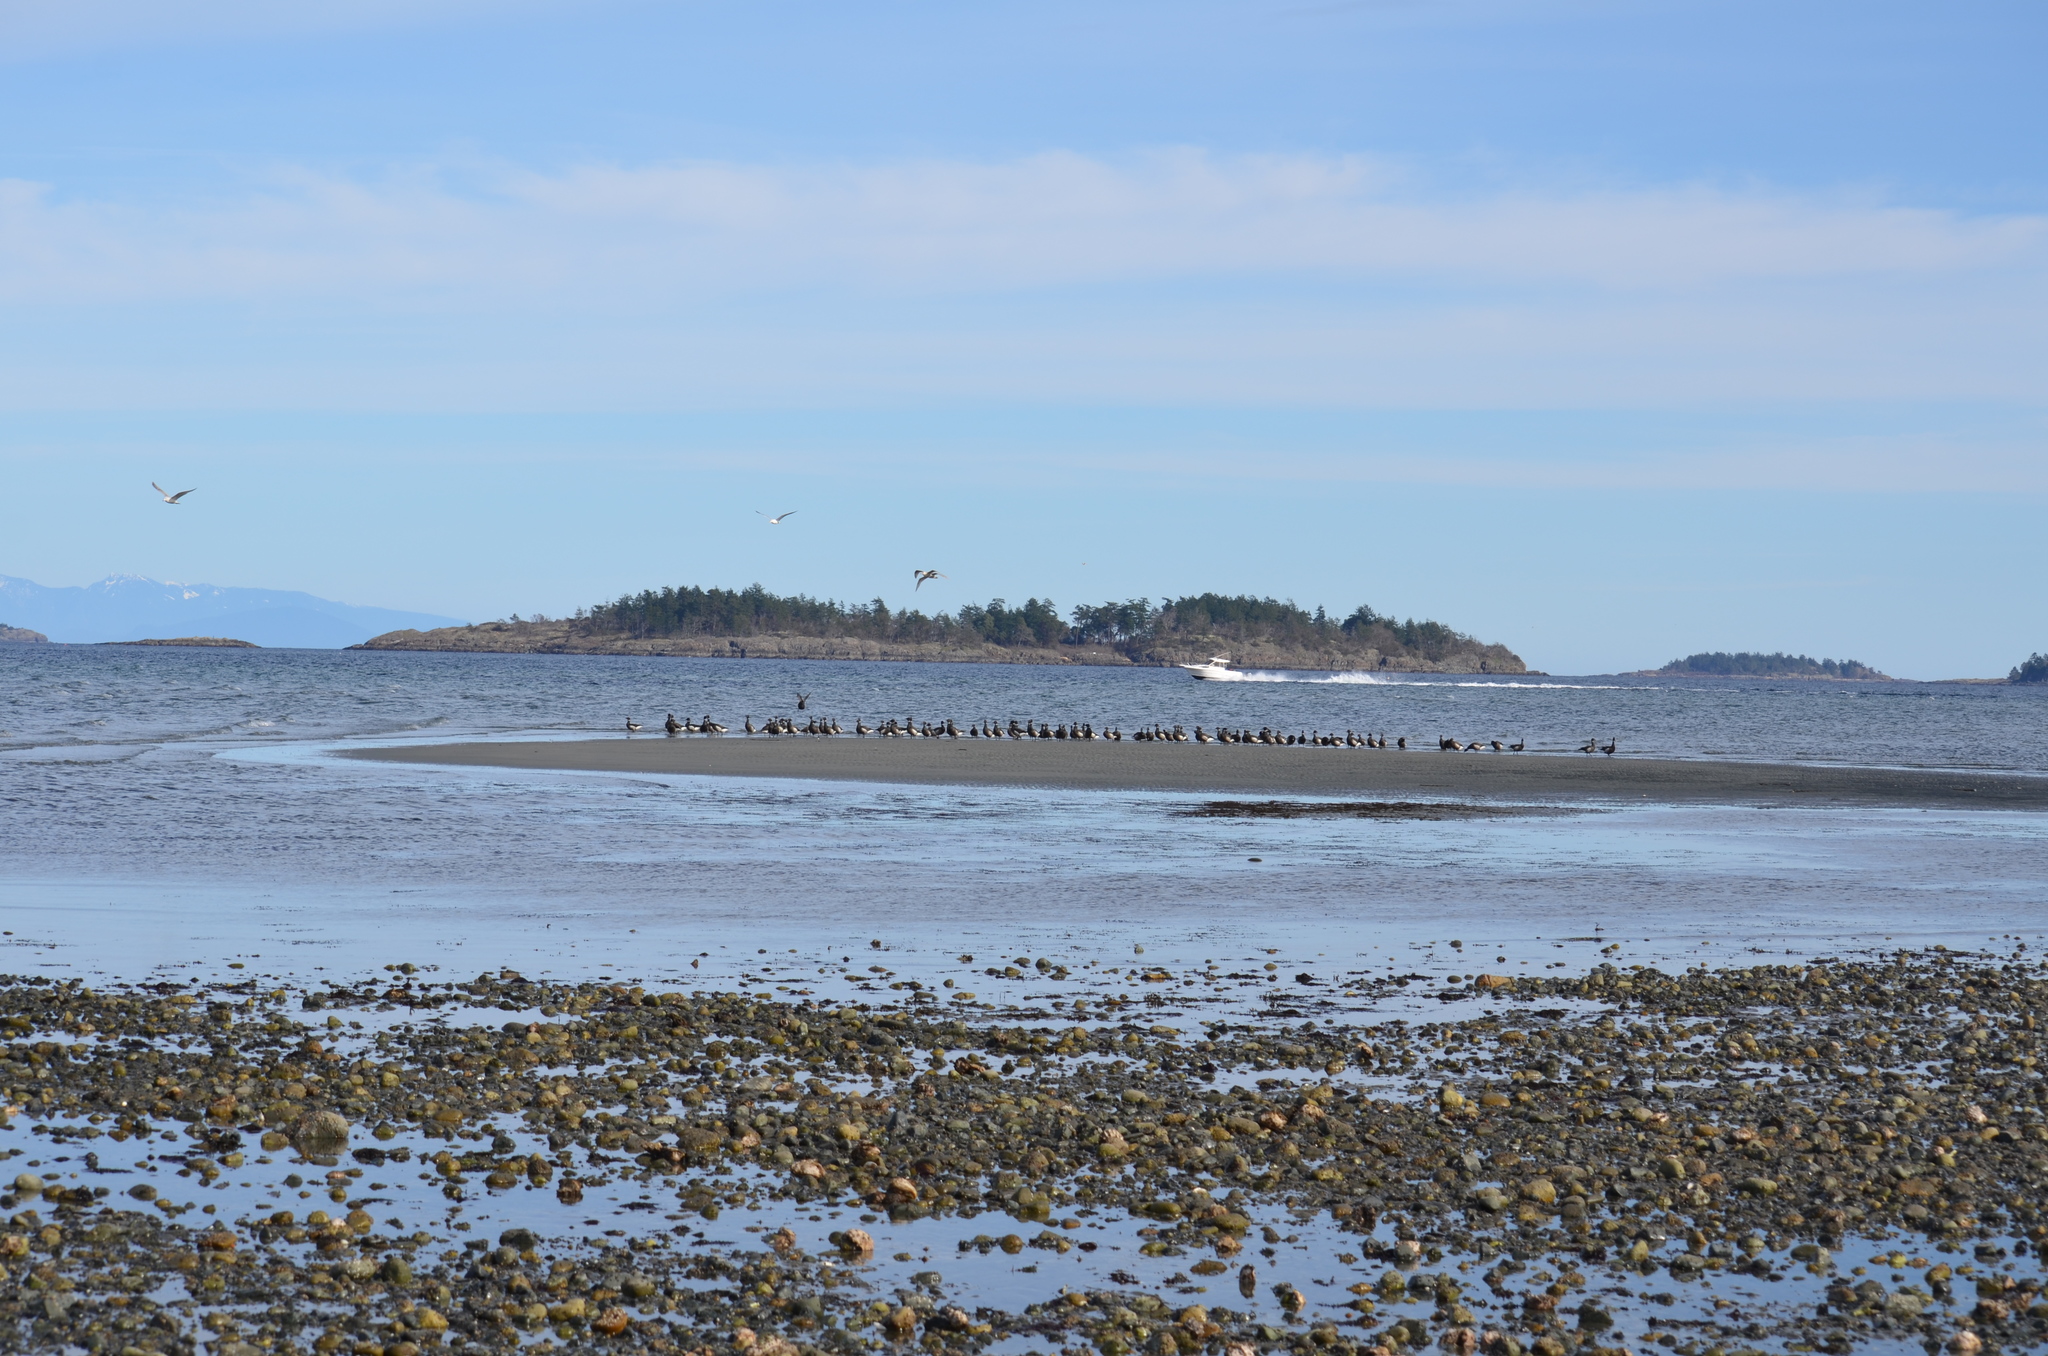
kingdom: Animalia
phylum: Chordata
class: Aves
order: Anseriformes
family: Anatidae
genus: Branta
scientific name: Branta bernicla
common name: Brant goose
